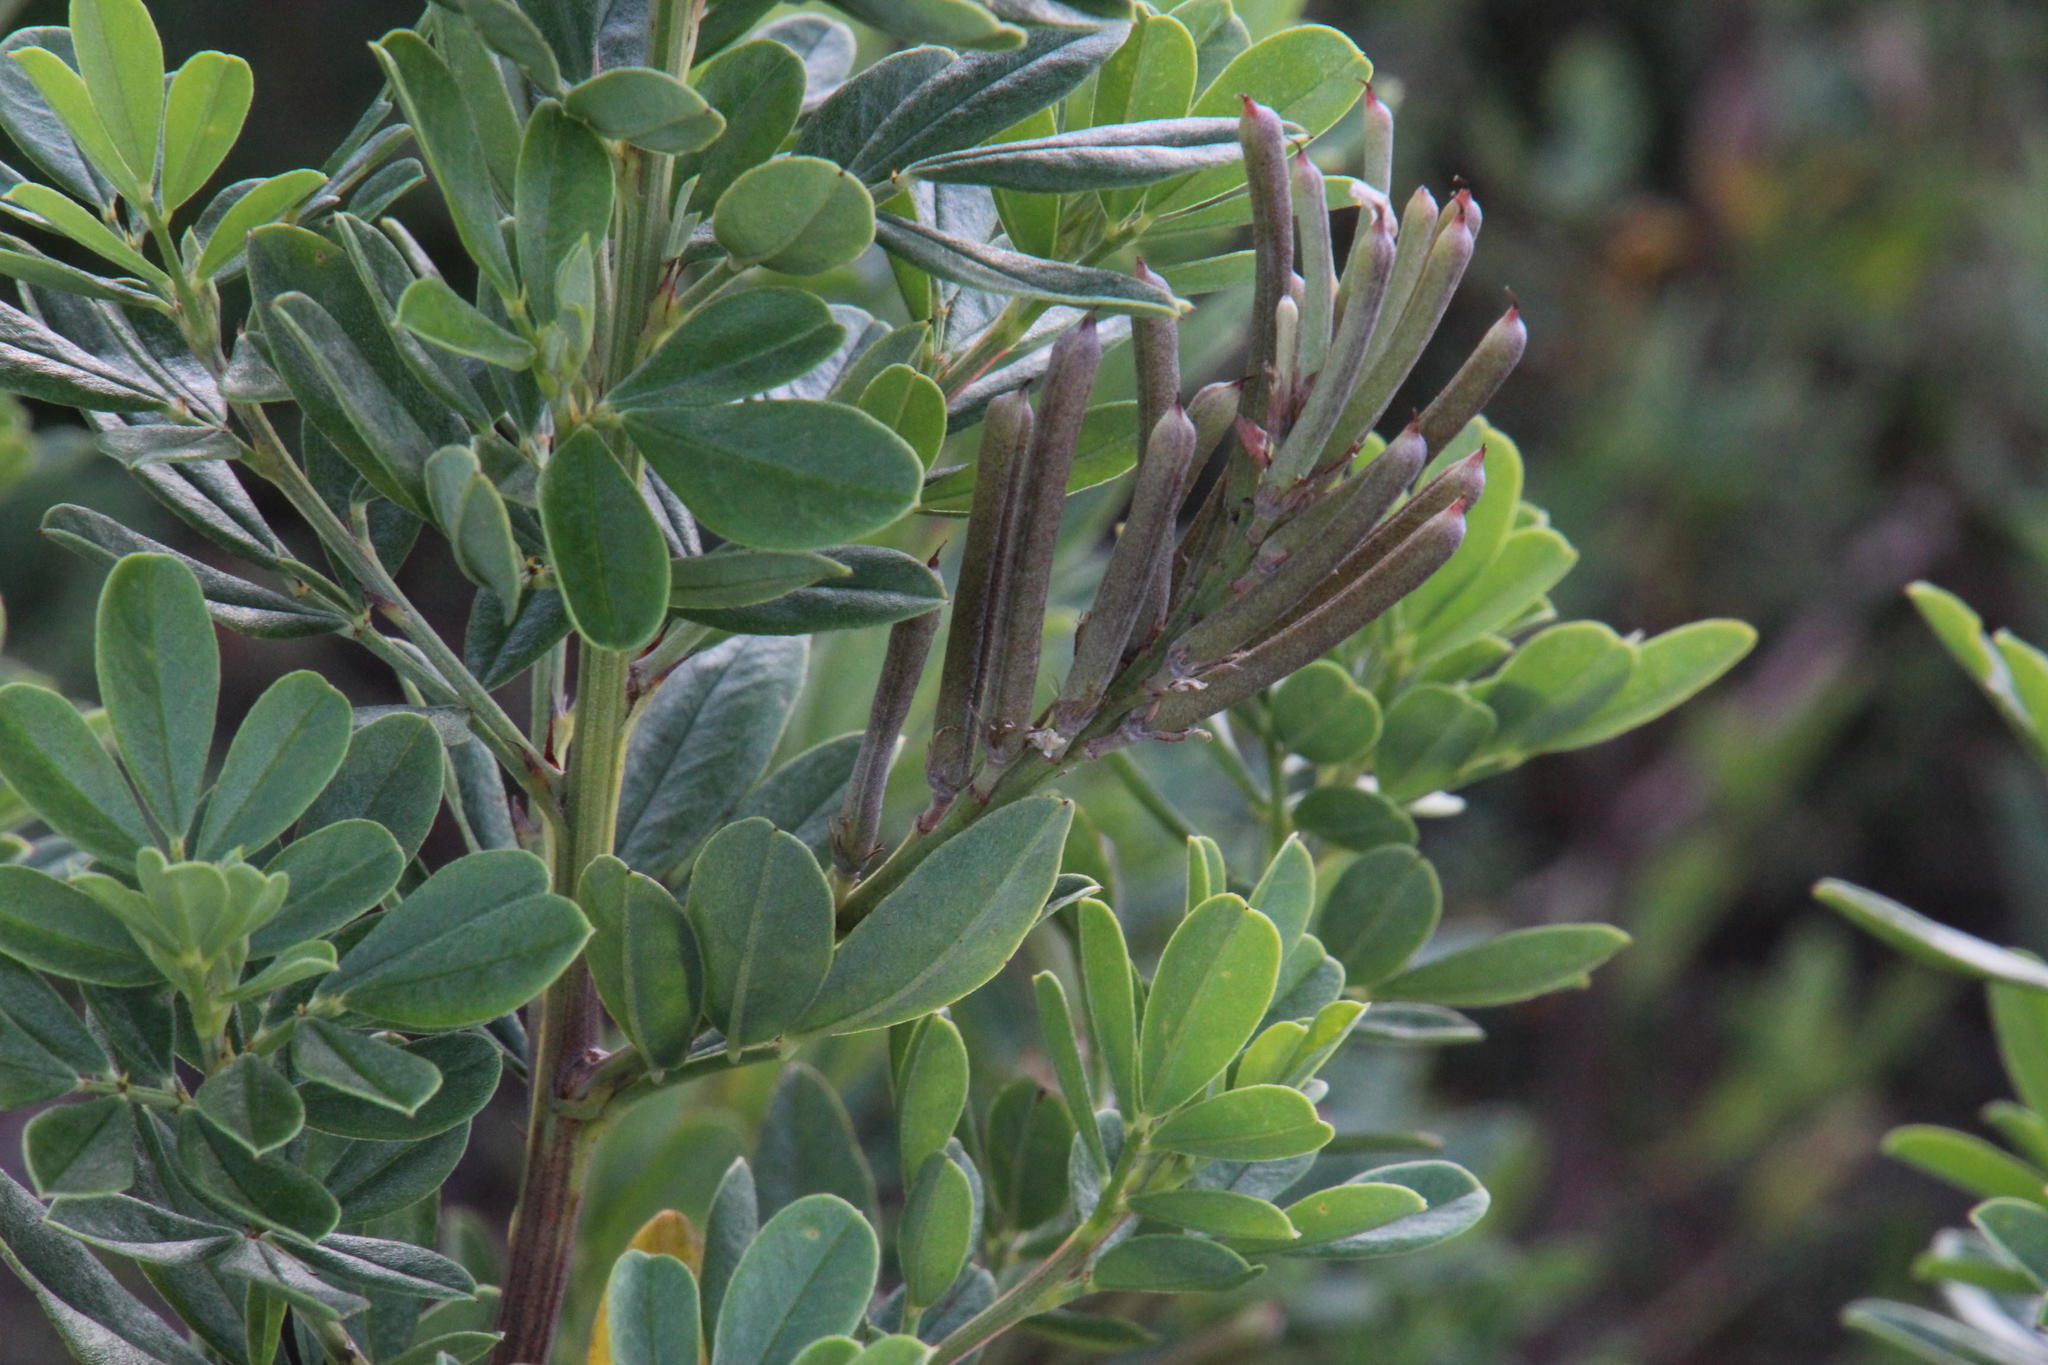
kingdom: Plantae
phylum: Tracheophyta
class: Magnoliopsida
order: Fabales
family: Fabaceae
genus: Indigofera
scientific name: Indigofera cytisoides
